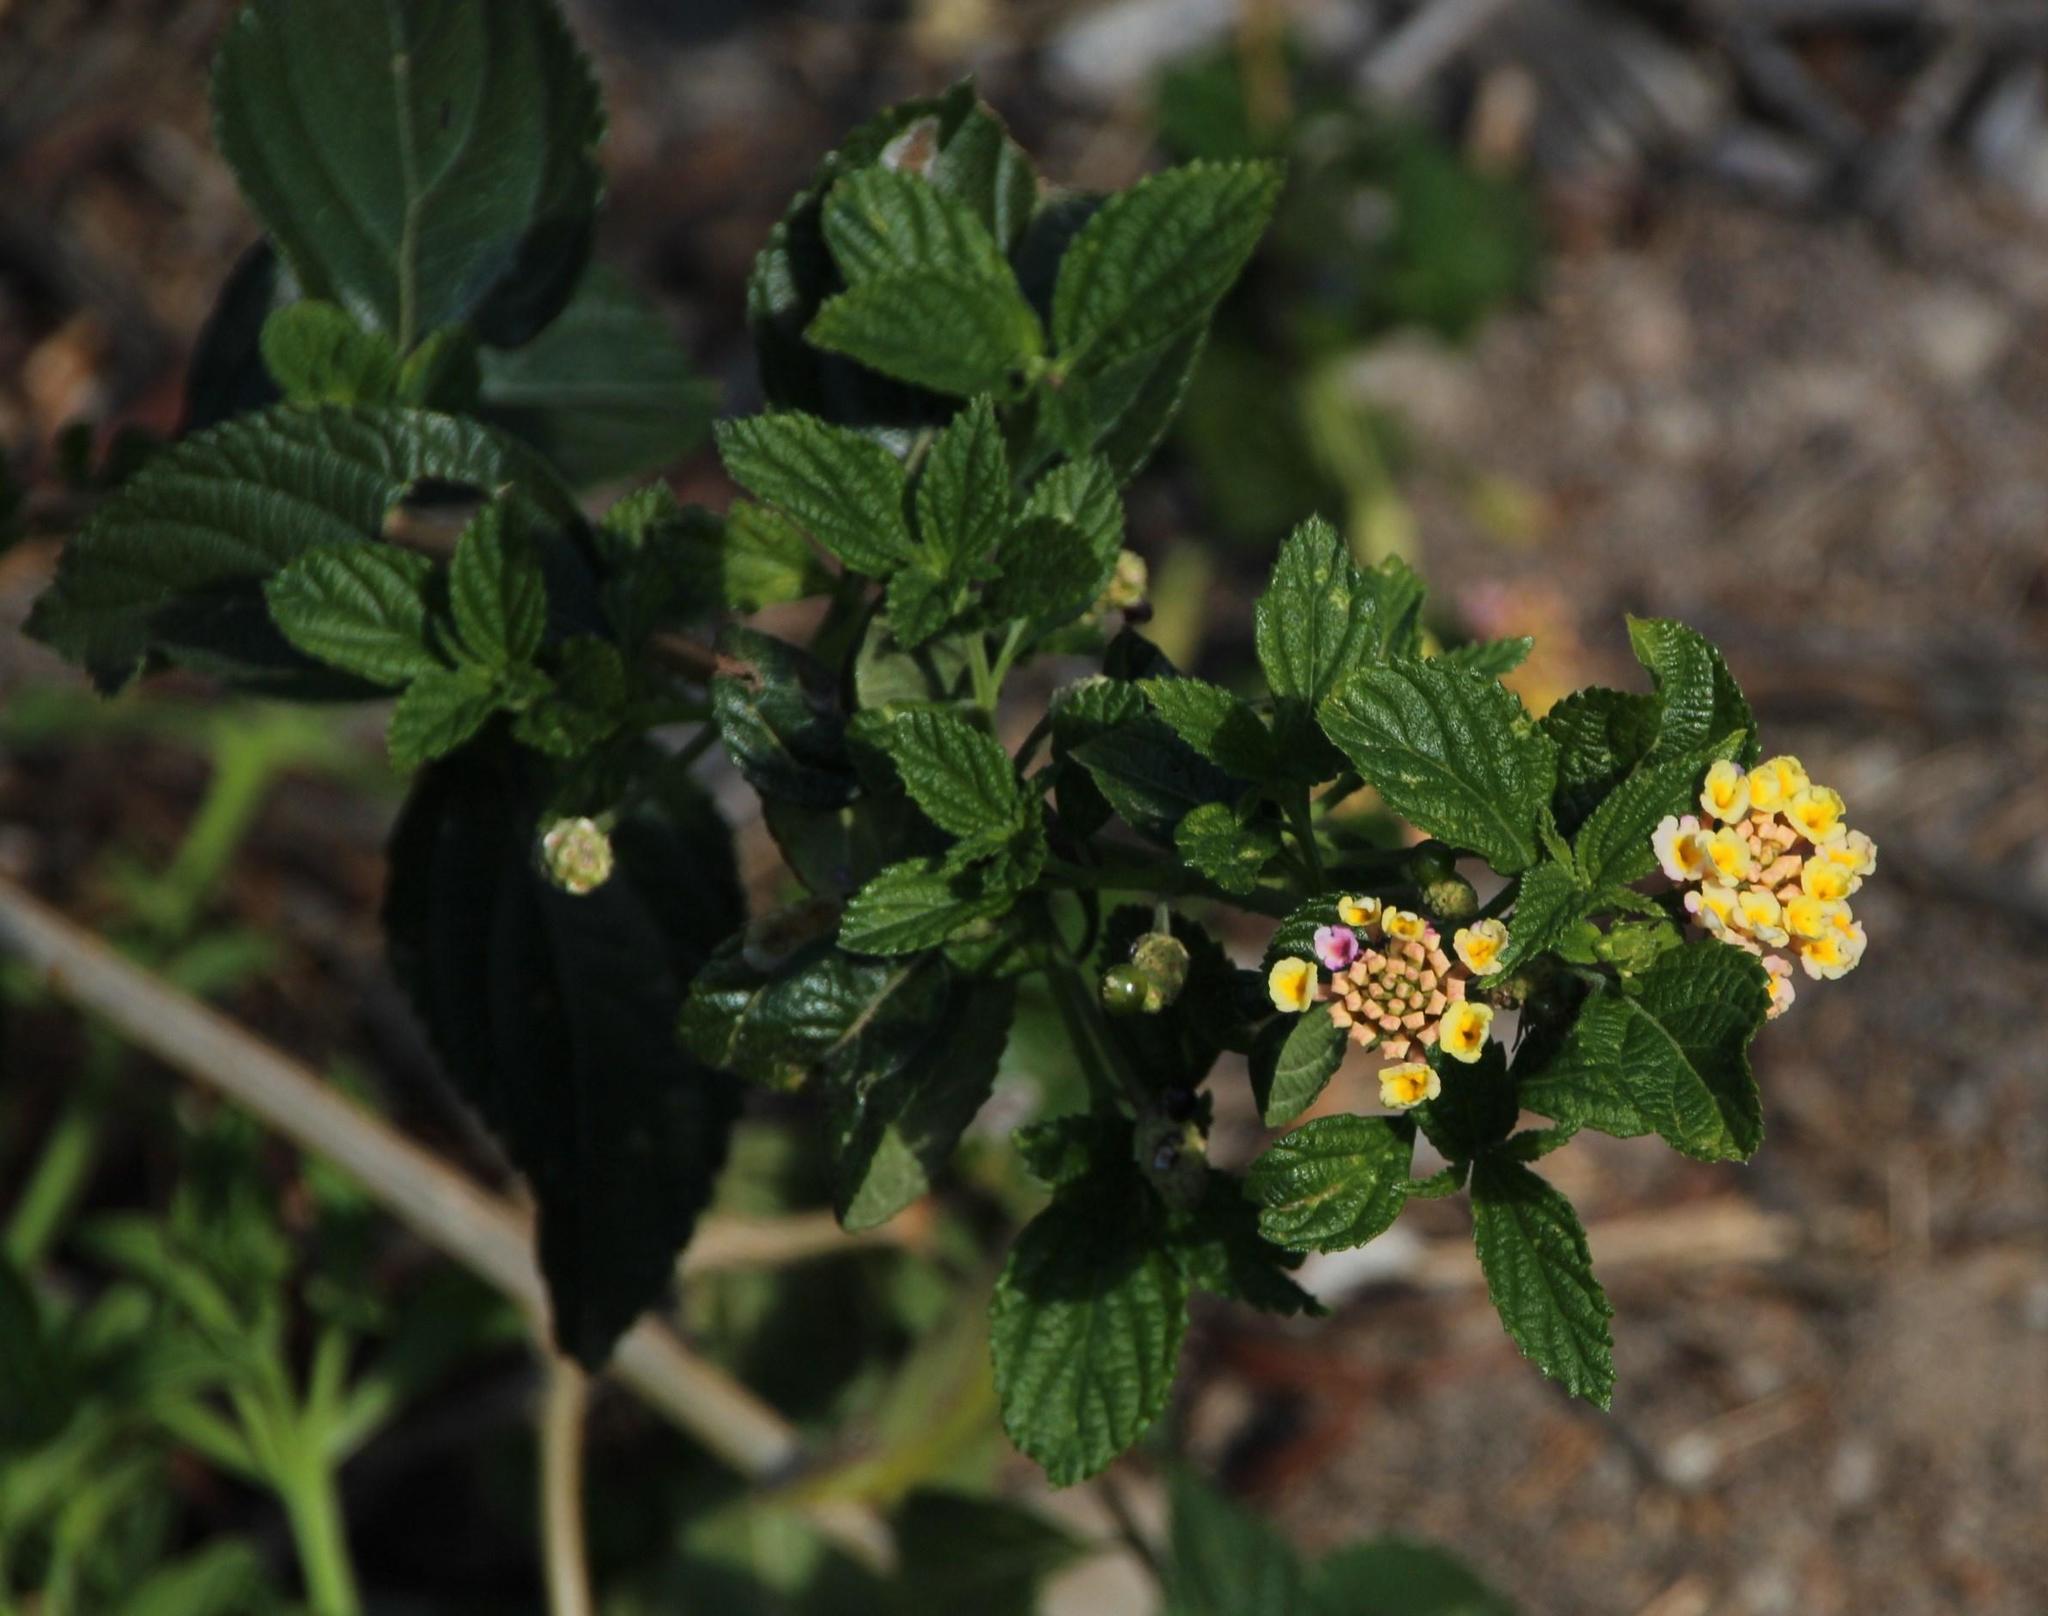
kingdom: Plantae
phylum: Tracheophyta
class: Magnoliopsida
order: Lamiales
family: Verbenaceae
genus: Lantana
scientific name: Lantana camara
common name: Lantana
